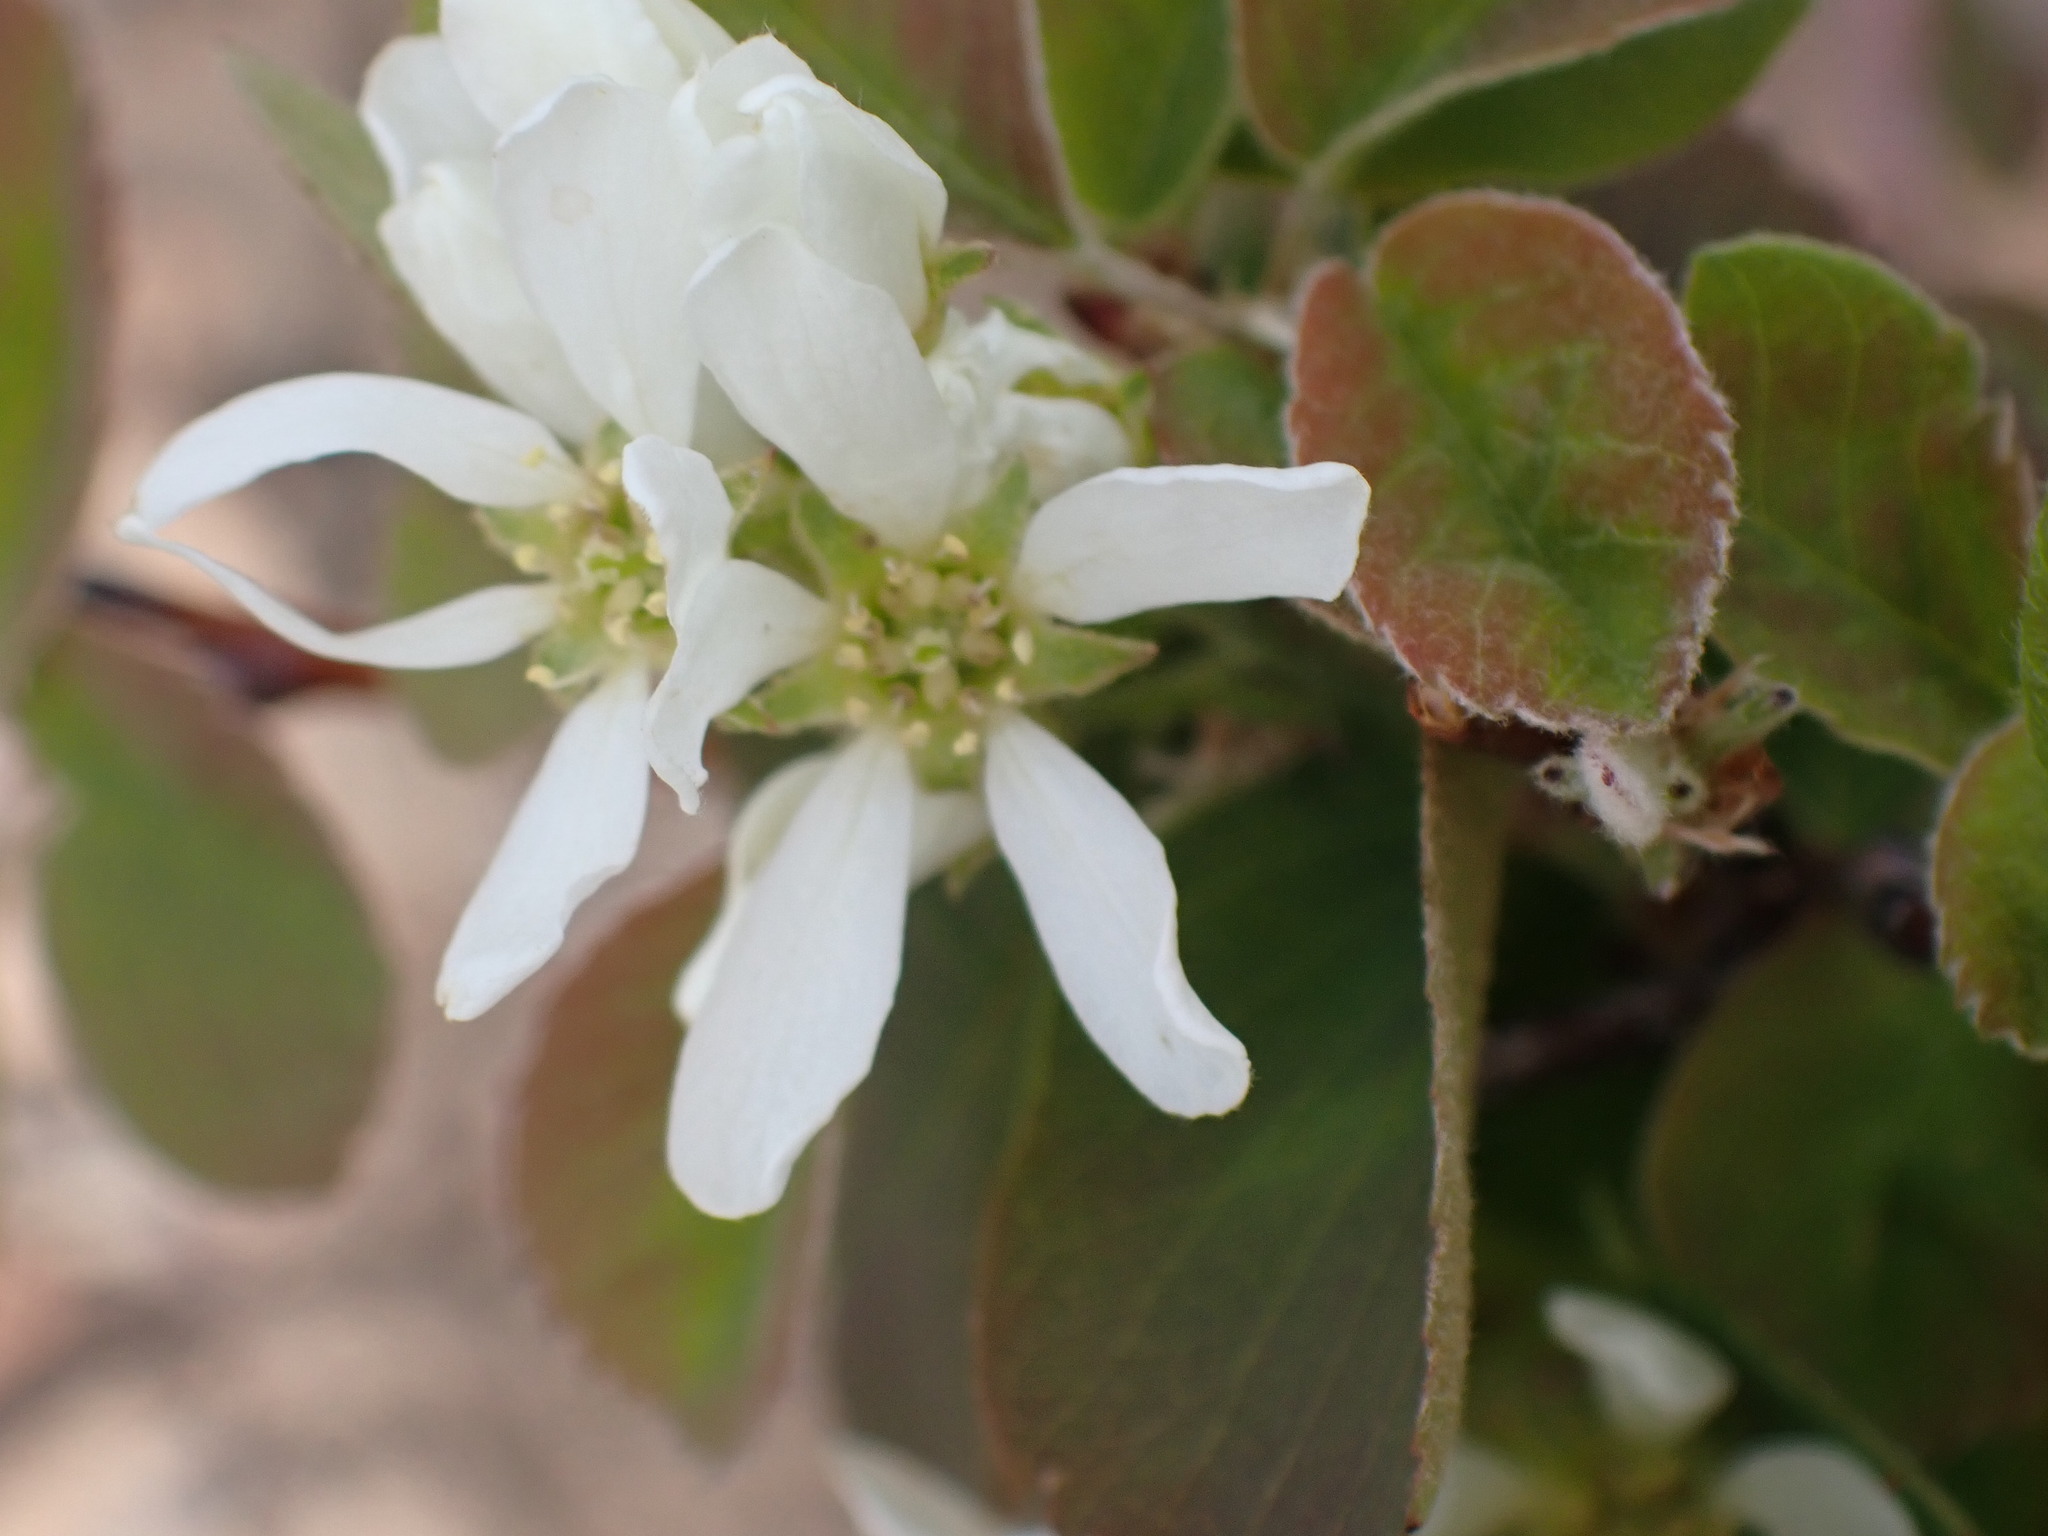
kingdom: Plantae
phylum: Tracheophyta
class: Magnoliopsida
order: Rosales
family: Rosaceae
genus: Amelanchier
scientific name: Amelanchier alnifolia
